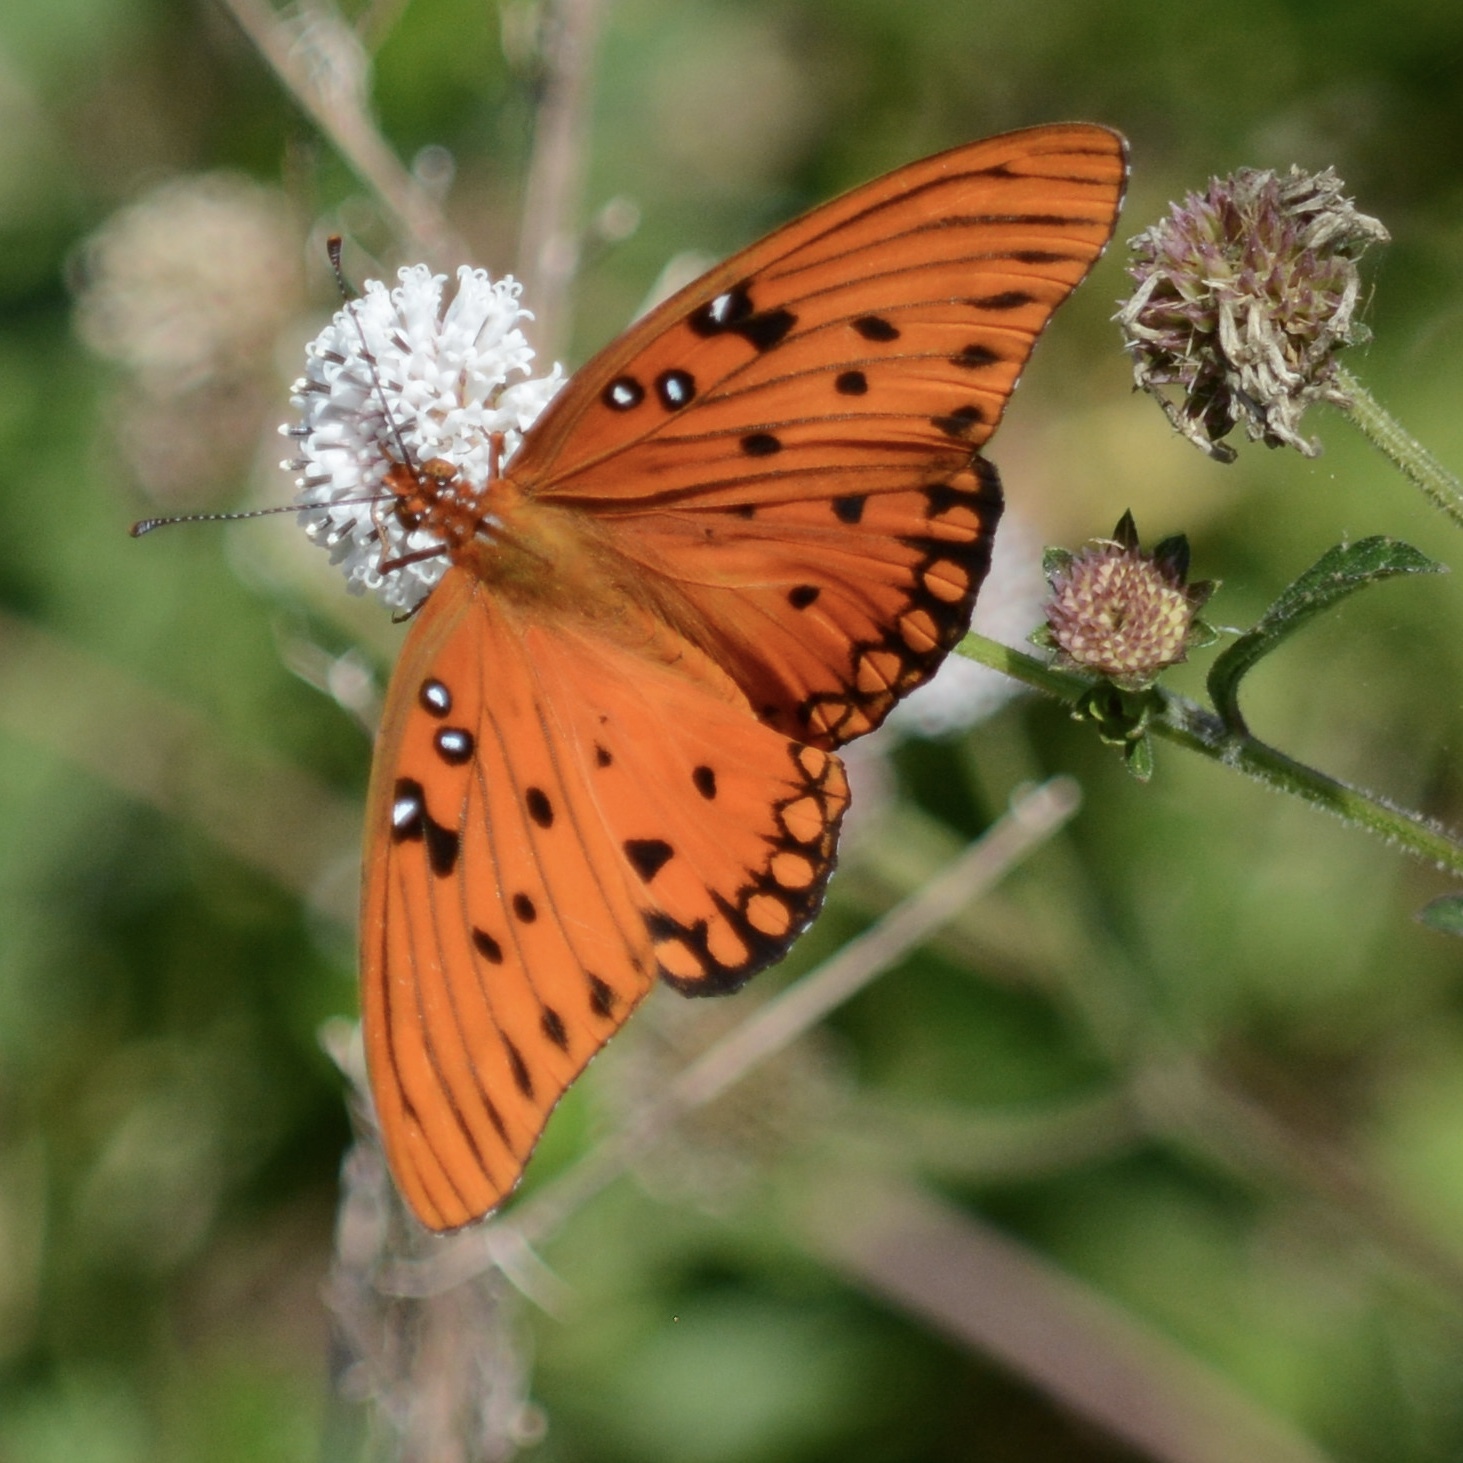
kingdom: Animalia
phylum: Arthropoda
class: Insecta
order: Lepidoptera
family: Nymphalidae
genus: Dione
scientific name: Dione vanillae
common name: Gulf fritillary
